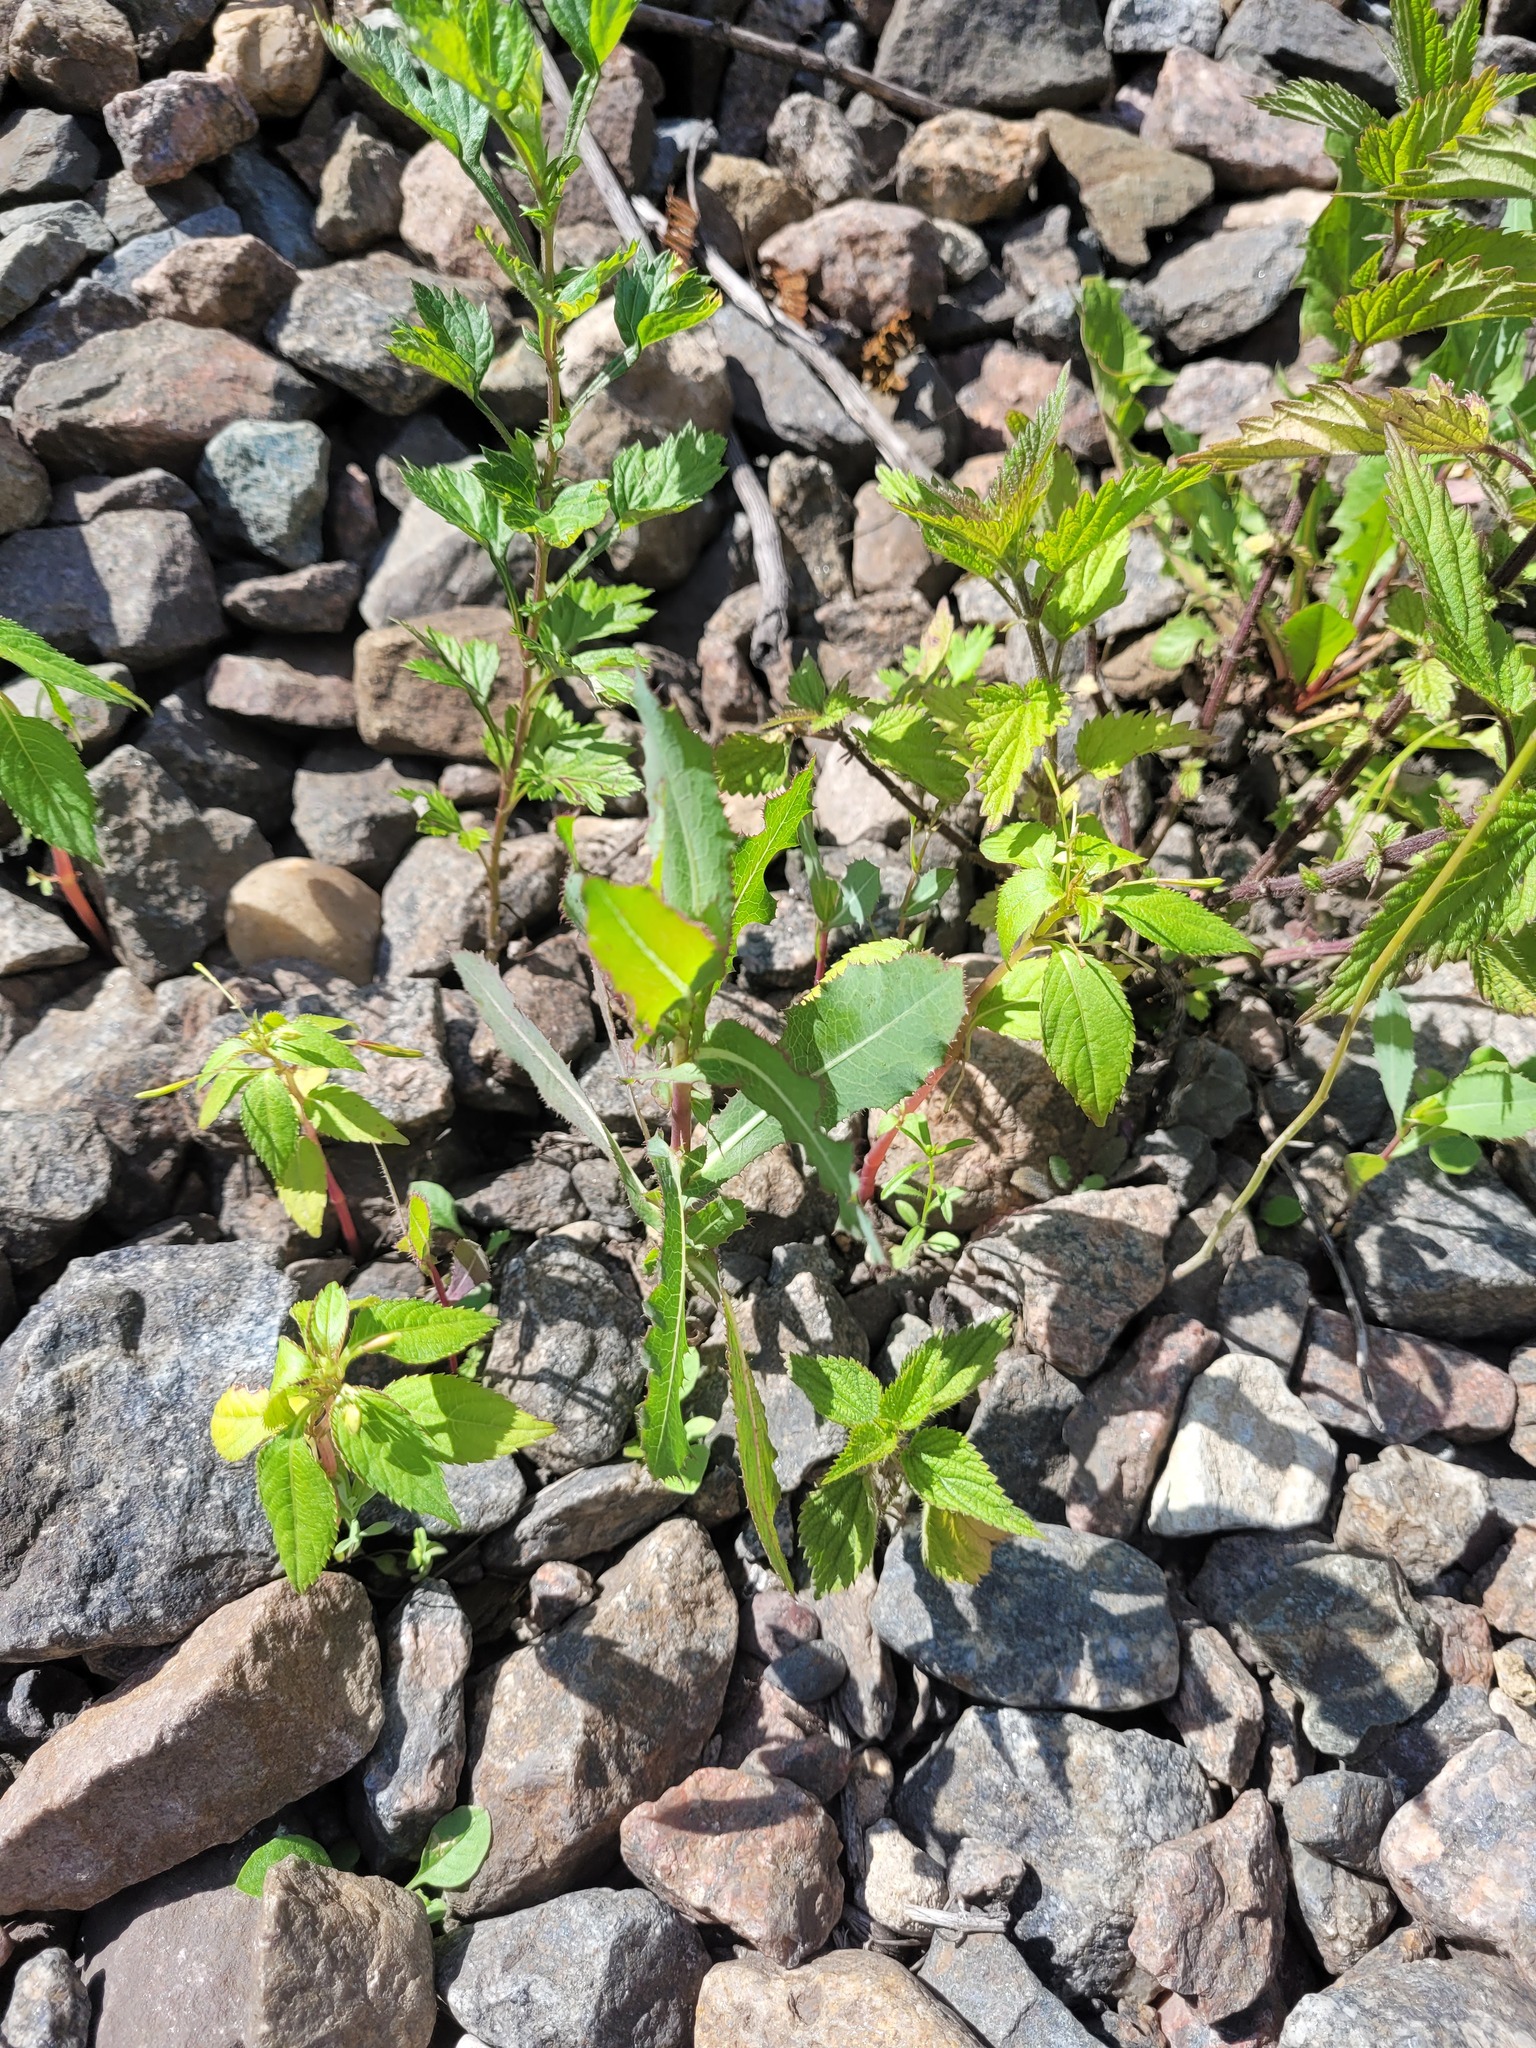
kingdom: Plantae
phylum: Tracheophyta
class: Magnoliopsida
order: Asterales
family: Asteraceae
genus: Lactuca
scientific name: Lactuca serriola
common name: Prickly lettuce
